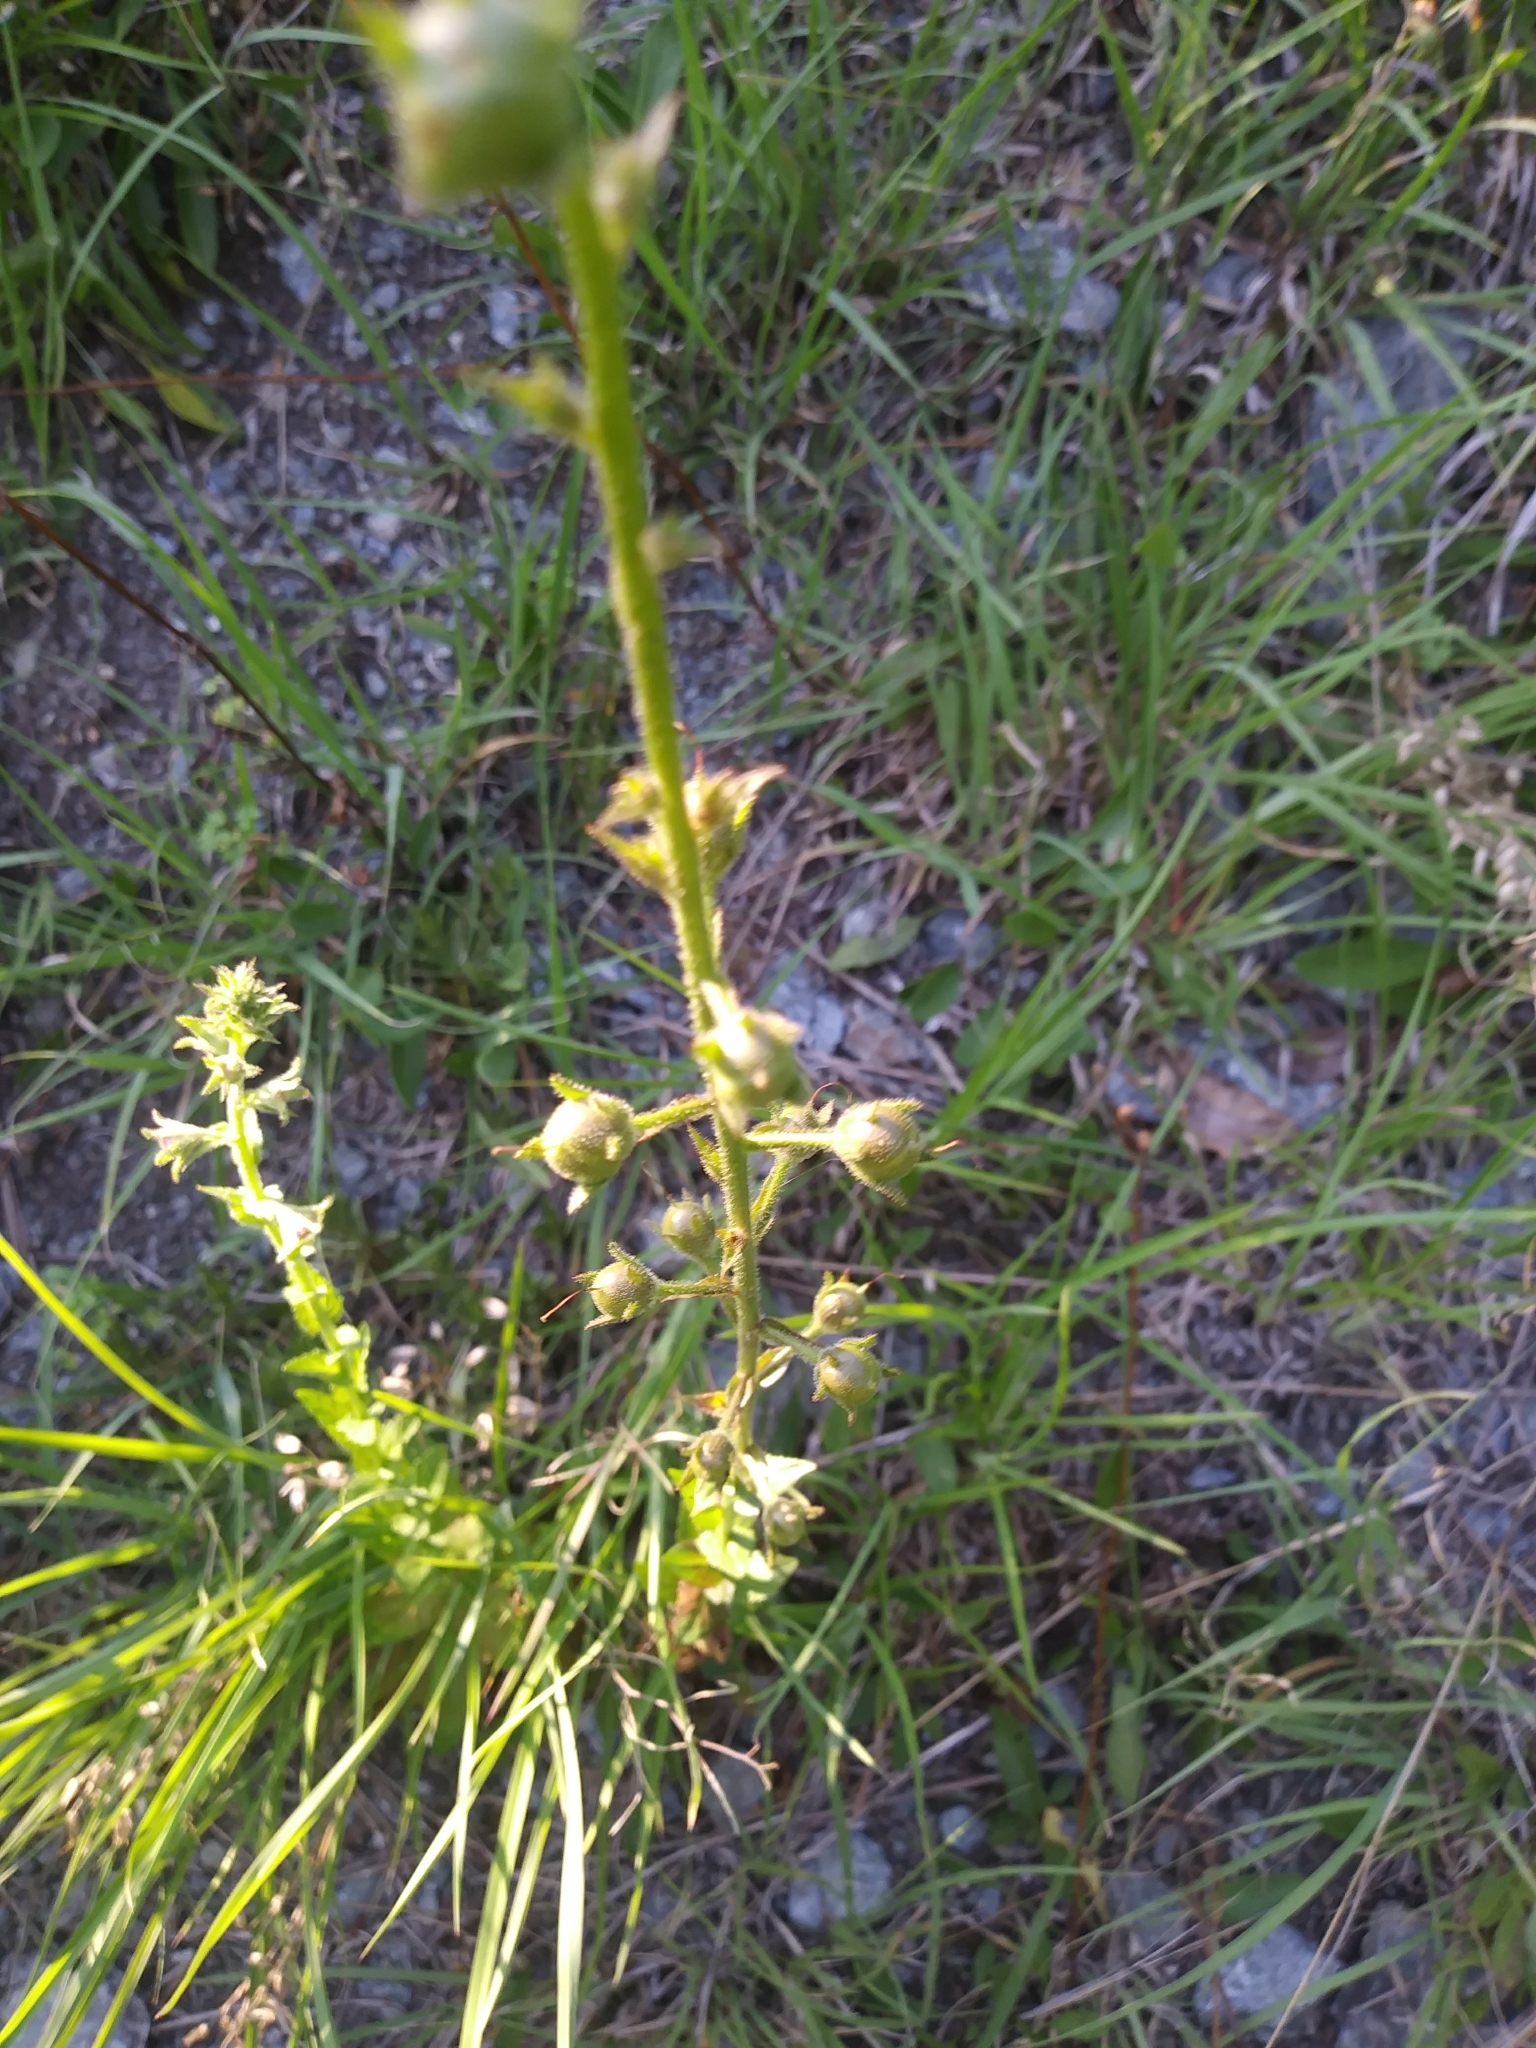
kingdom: Plantae
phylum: Tracheophyta
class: Magnoliopsida
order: Lamiales
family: Scrophulariaceae
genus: Verbascum
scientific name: Verbascum blattaria
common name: Moth mullein
